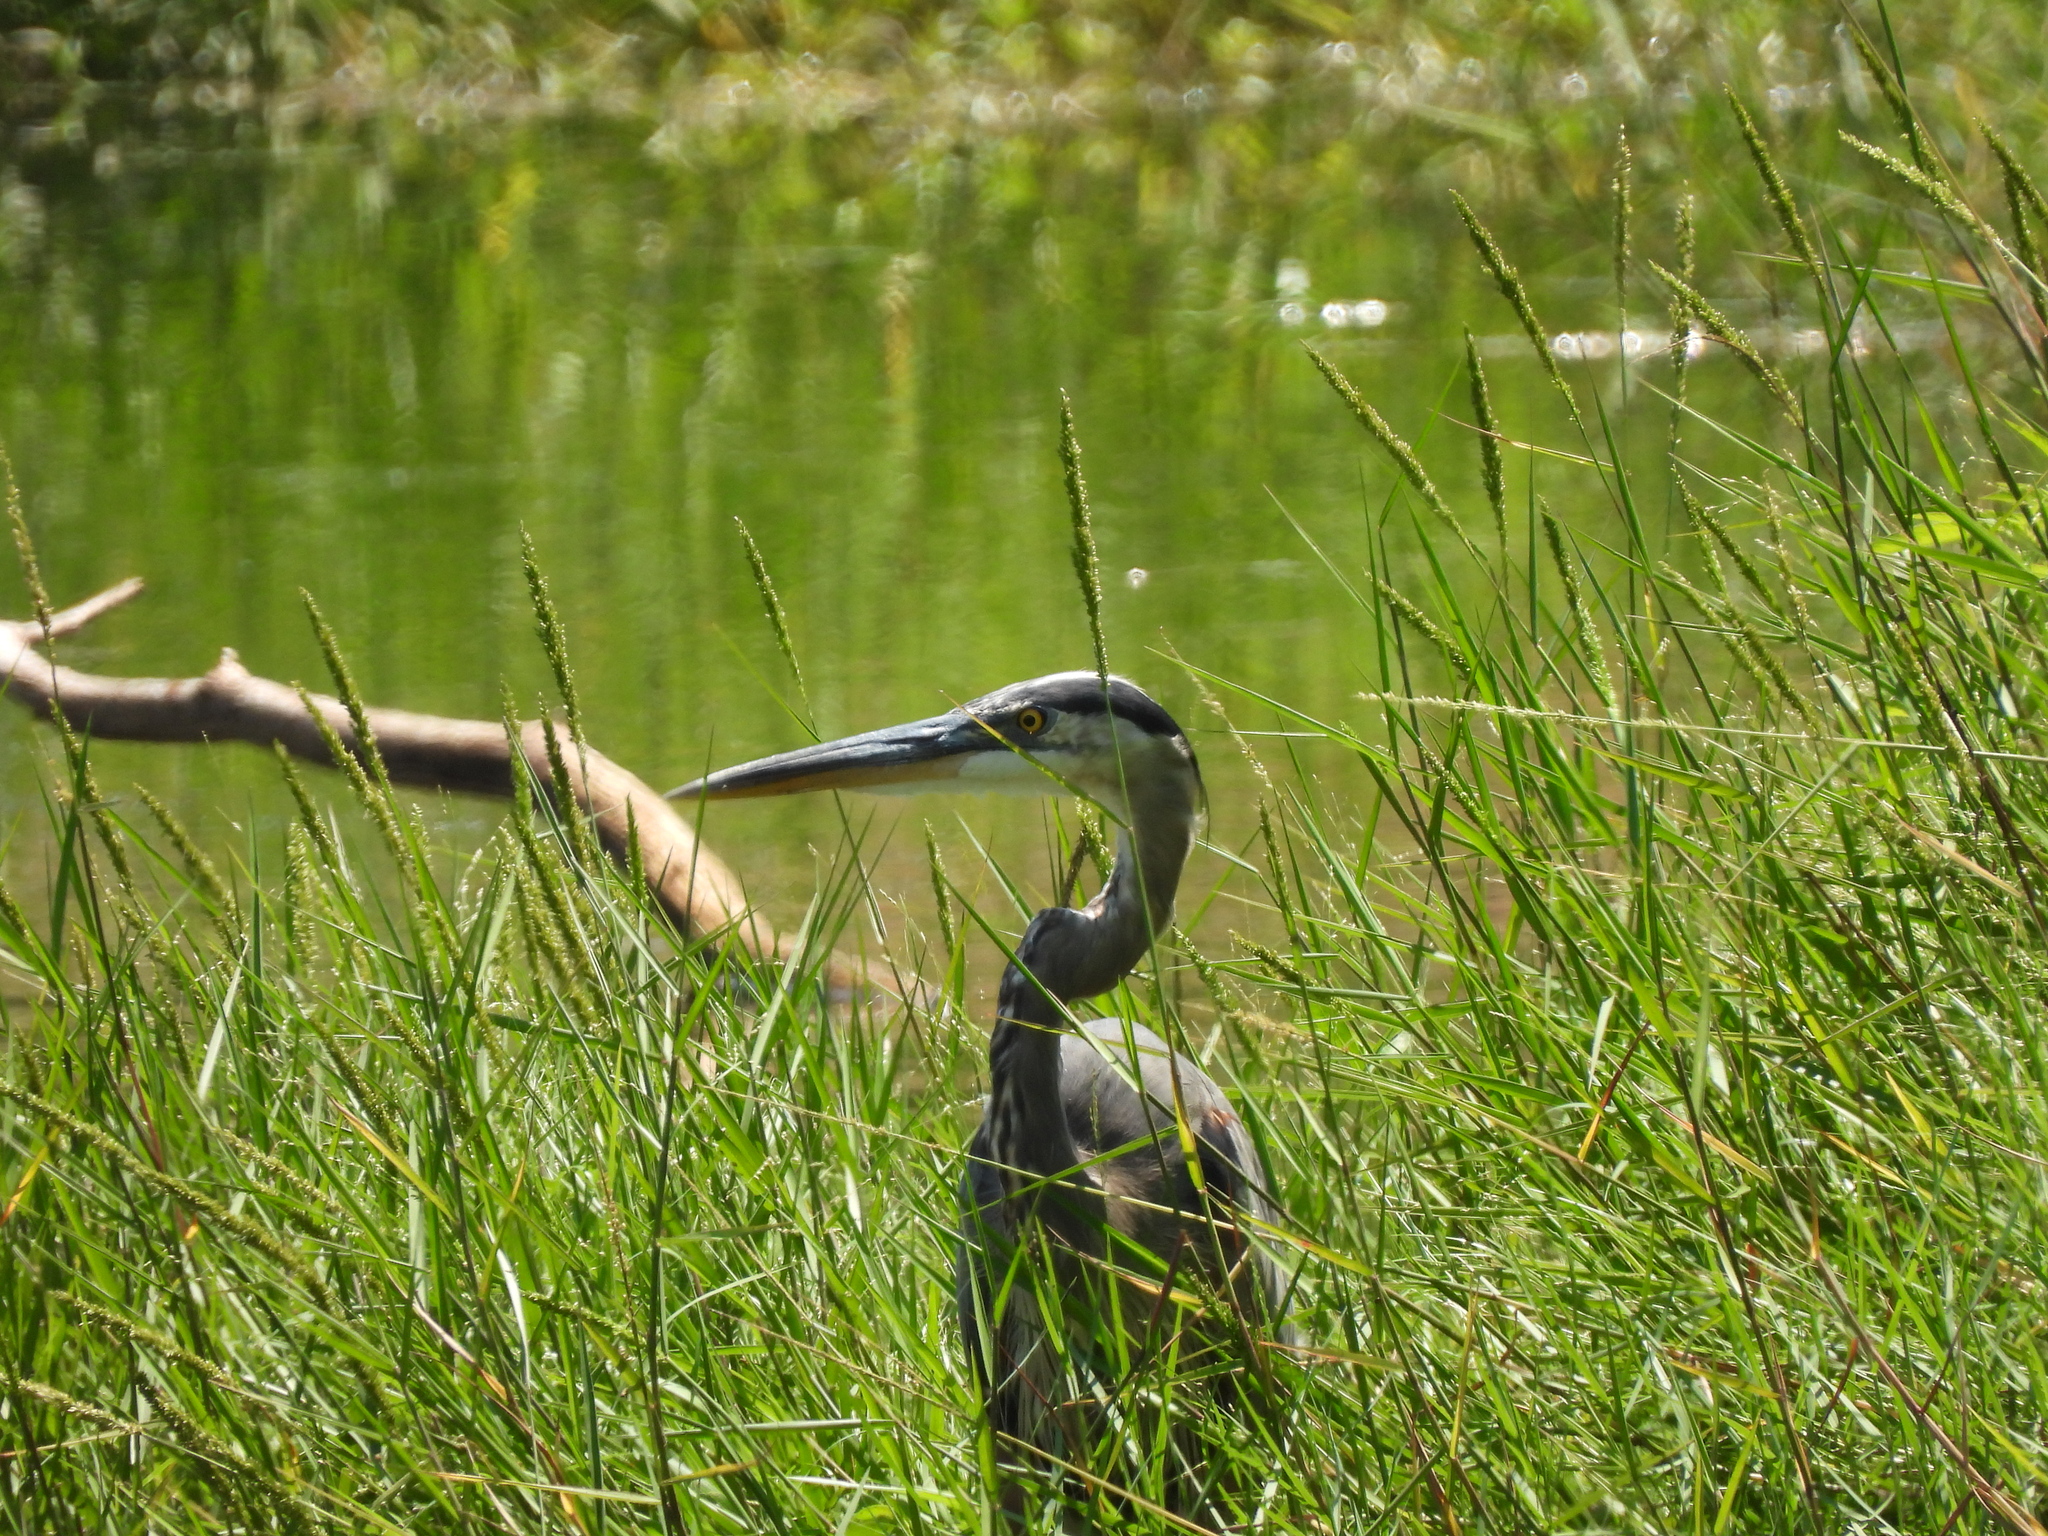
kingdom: Animalia
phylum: Chordata
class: Aves
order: Pelecaniformes
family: Ardeidae
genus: Ardea
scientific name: Ardea herodias
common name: Great blue heron
